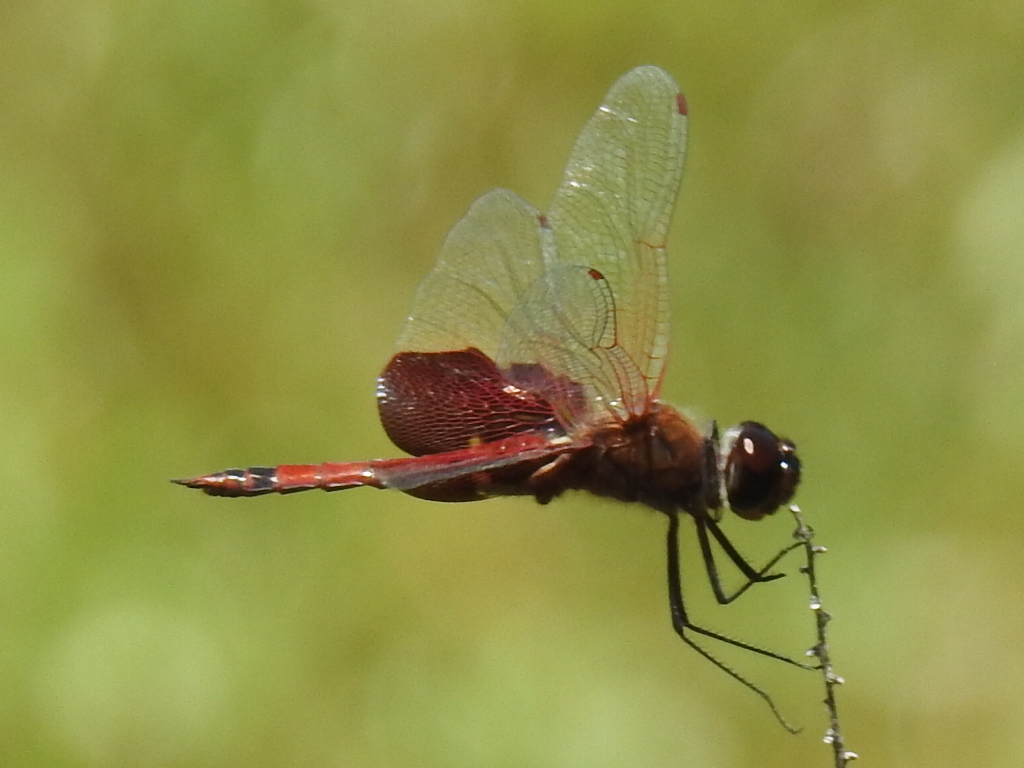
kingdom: Animalia
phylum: Arthropoda
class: Insecta
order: Odonata
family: Libellulidae
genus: Tramea
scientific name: Tramea carolina
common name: Carolina saddlebags
